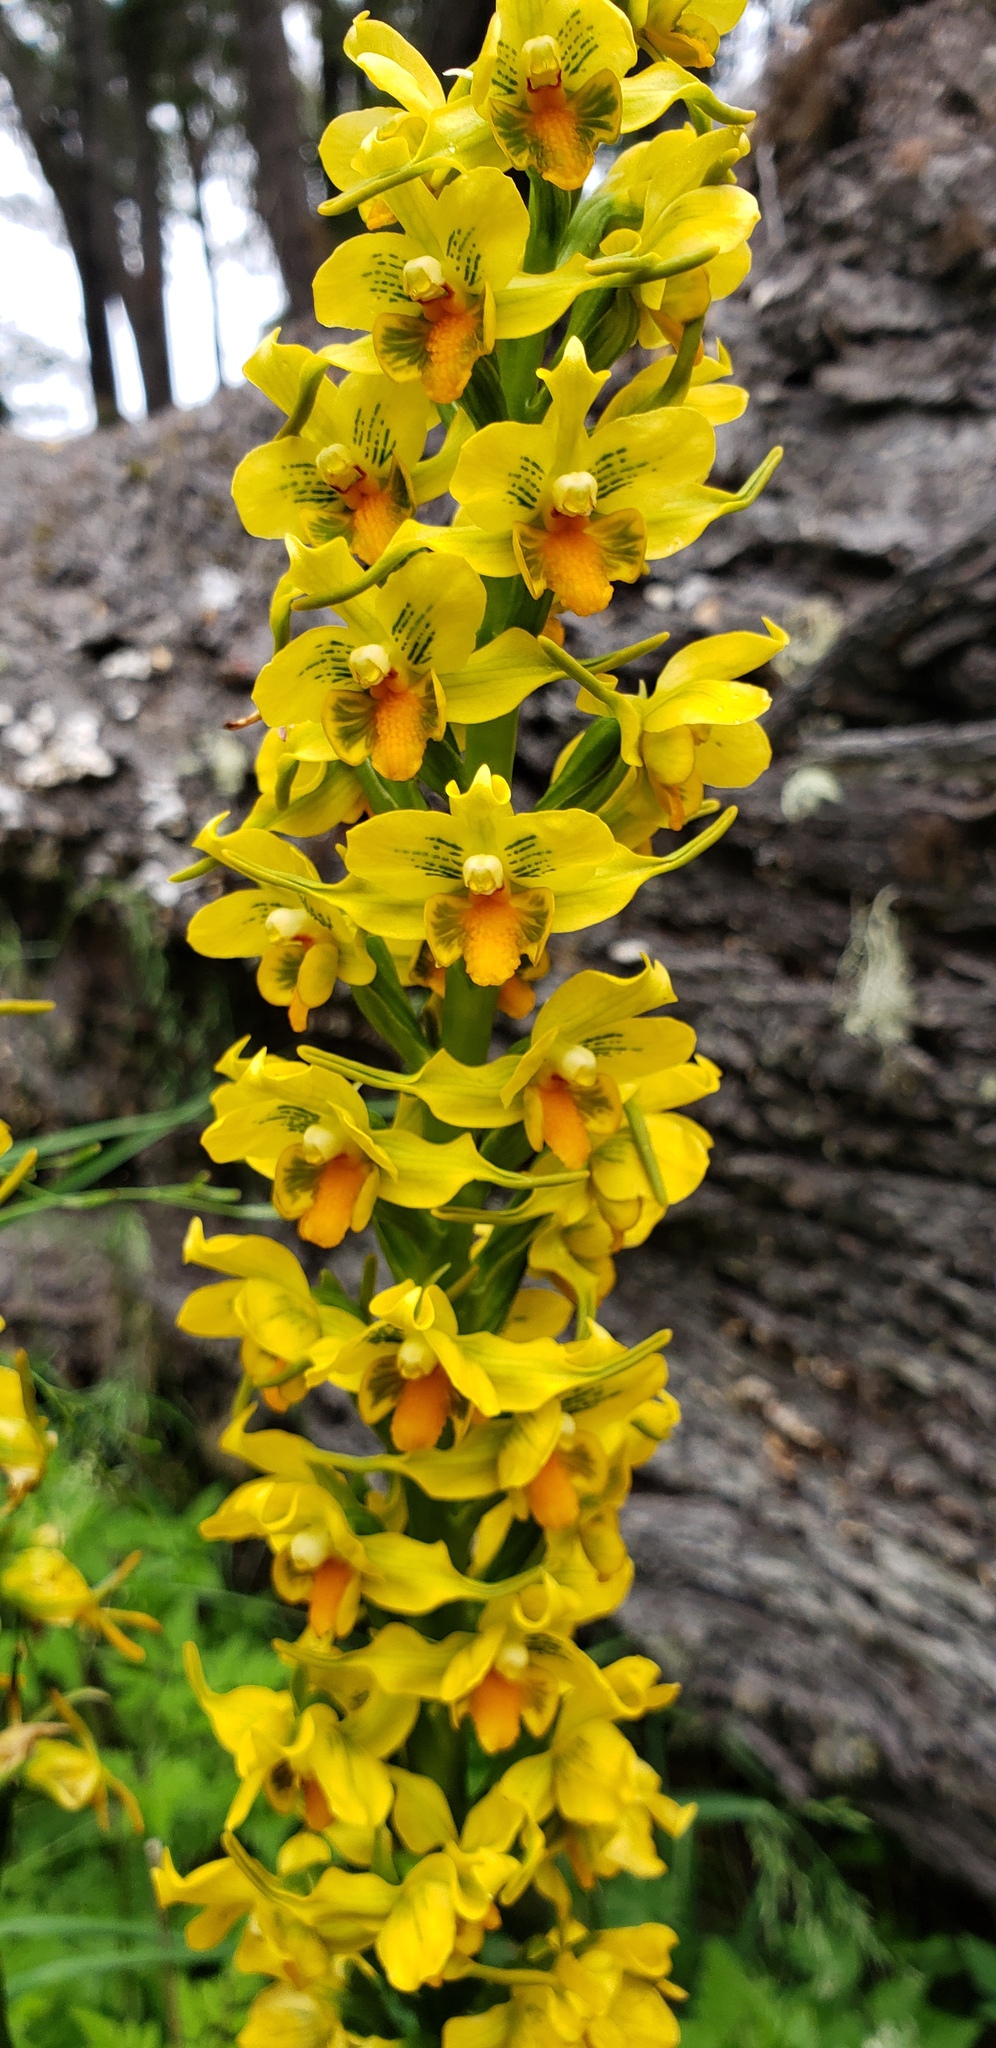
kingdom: Plantae
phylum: Tracheophyta
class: Liliopsida
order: Asparagales
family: Orchidaceae
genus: Gavilea
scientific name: Gavilea odoratissima
